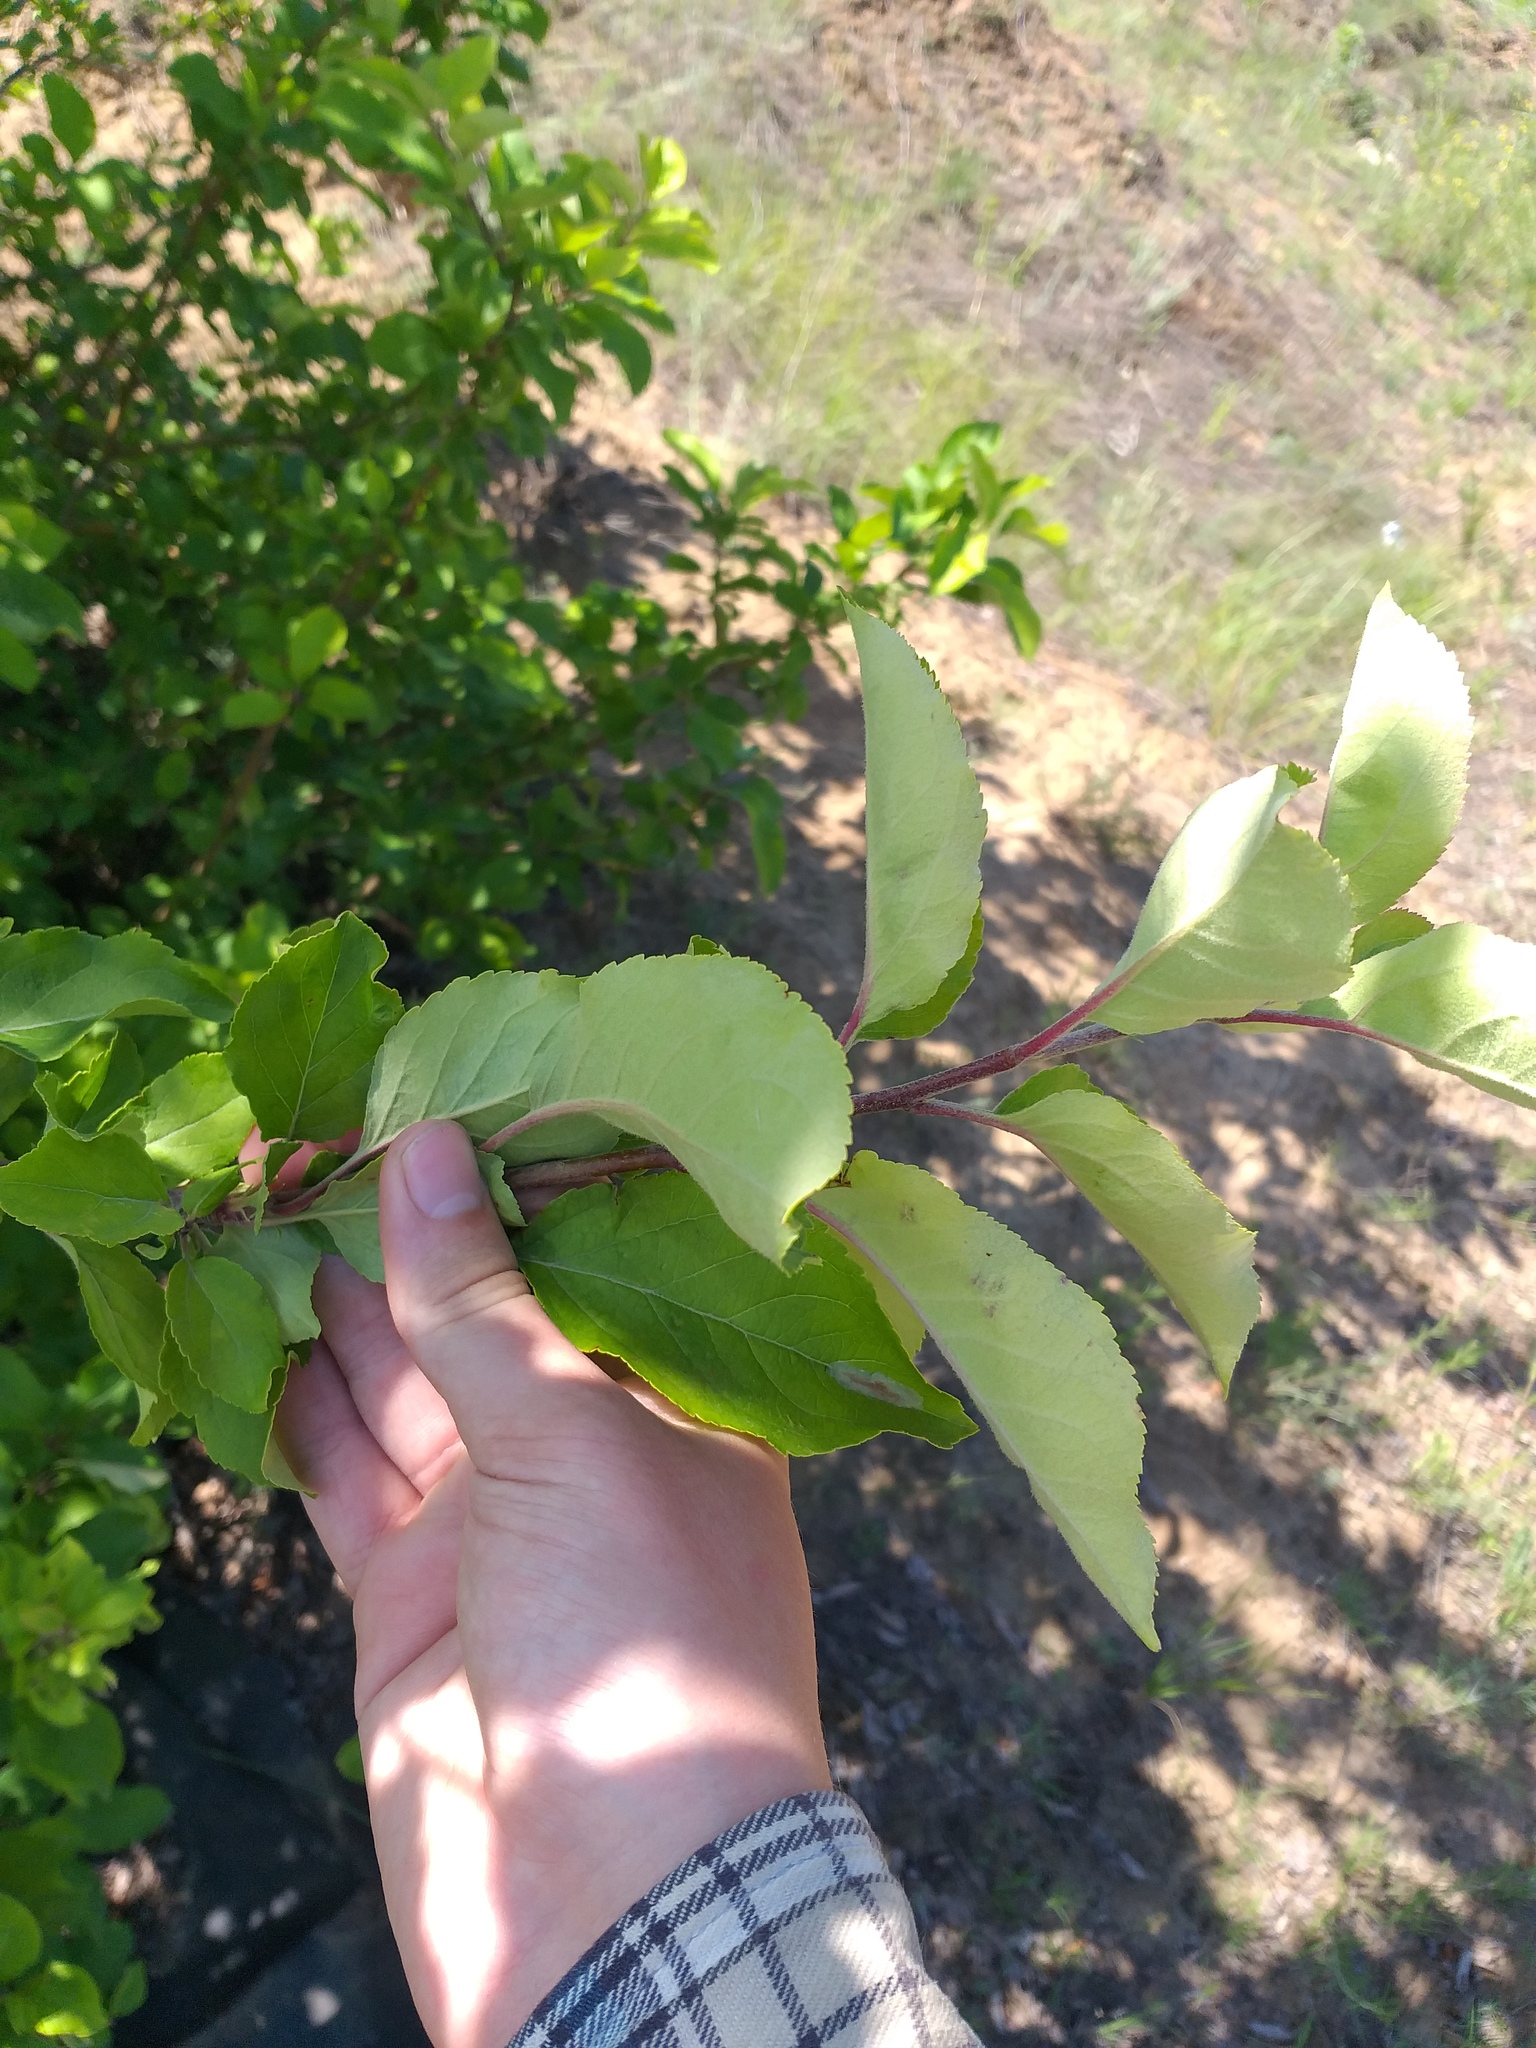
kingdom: Plantae
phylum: Tracheophyta
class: Magnoliopsida
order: Rosales
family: Rosaceae
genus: Malus
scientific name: Malus domestica
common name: Apple
